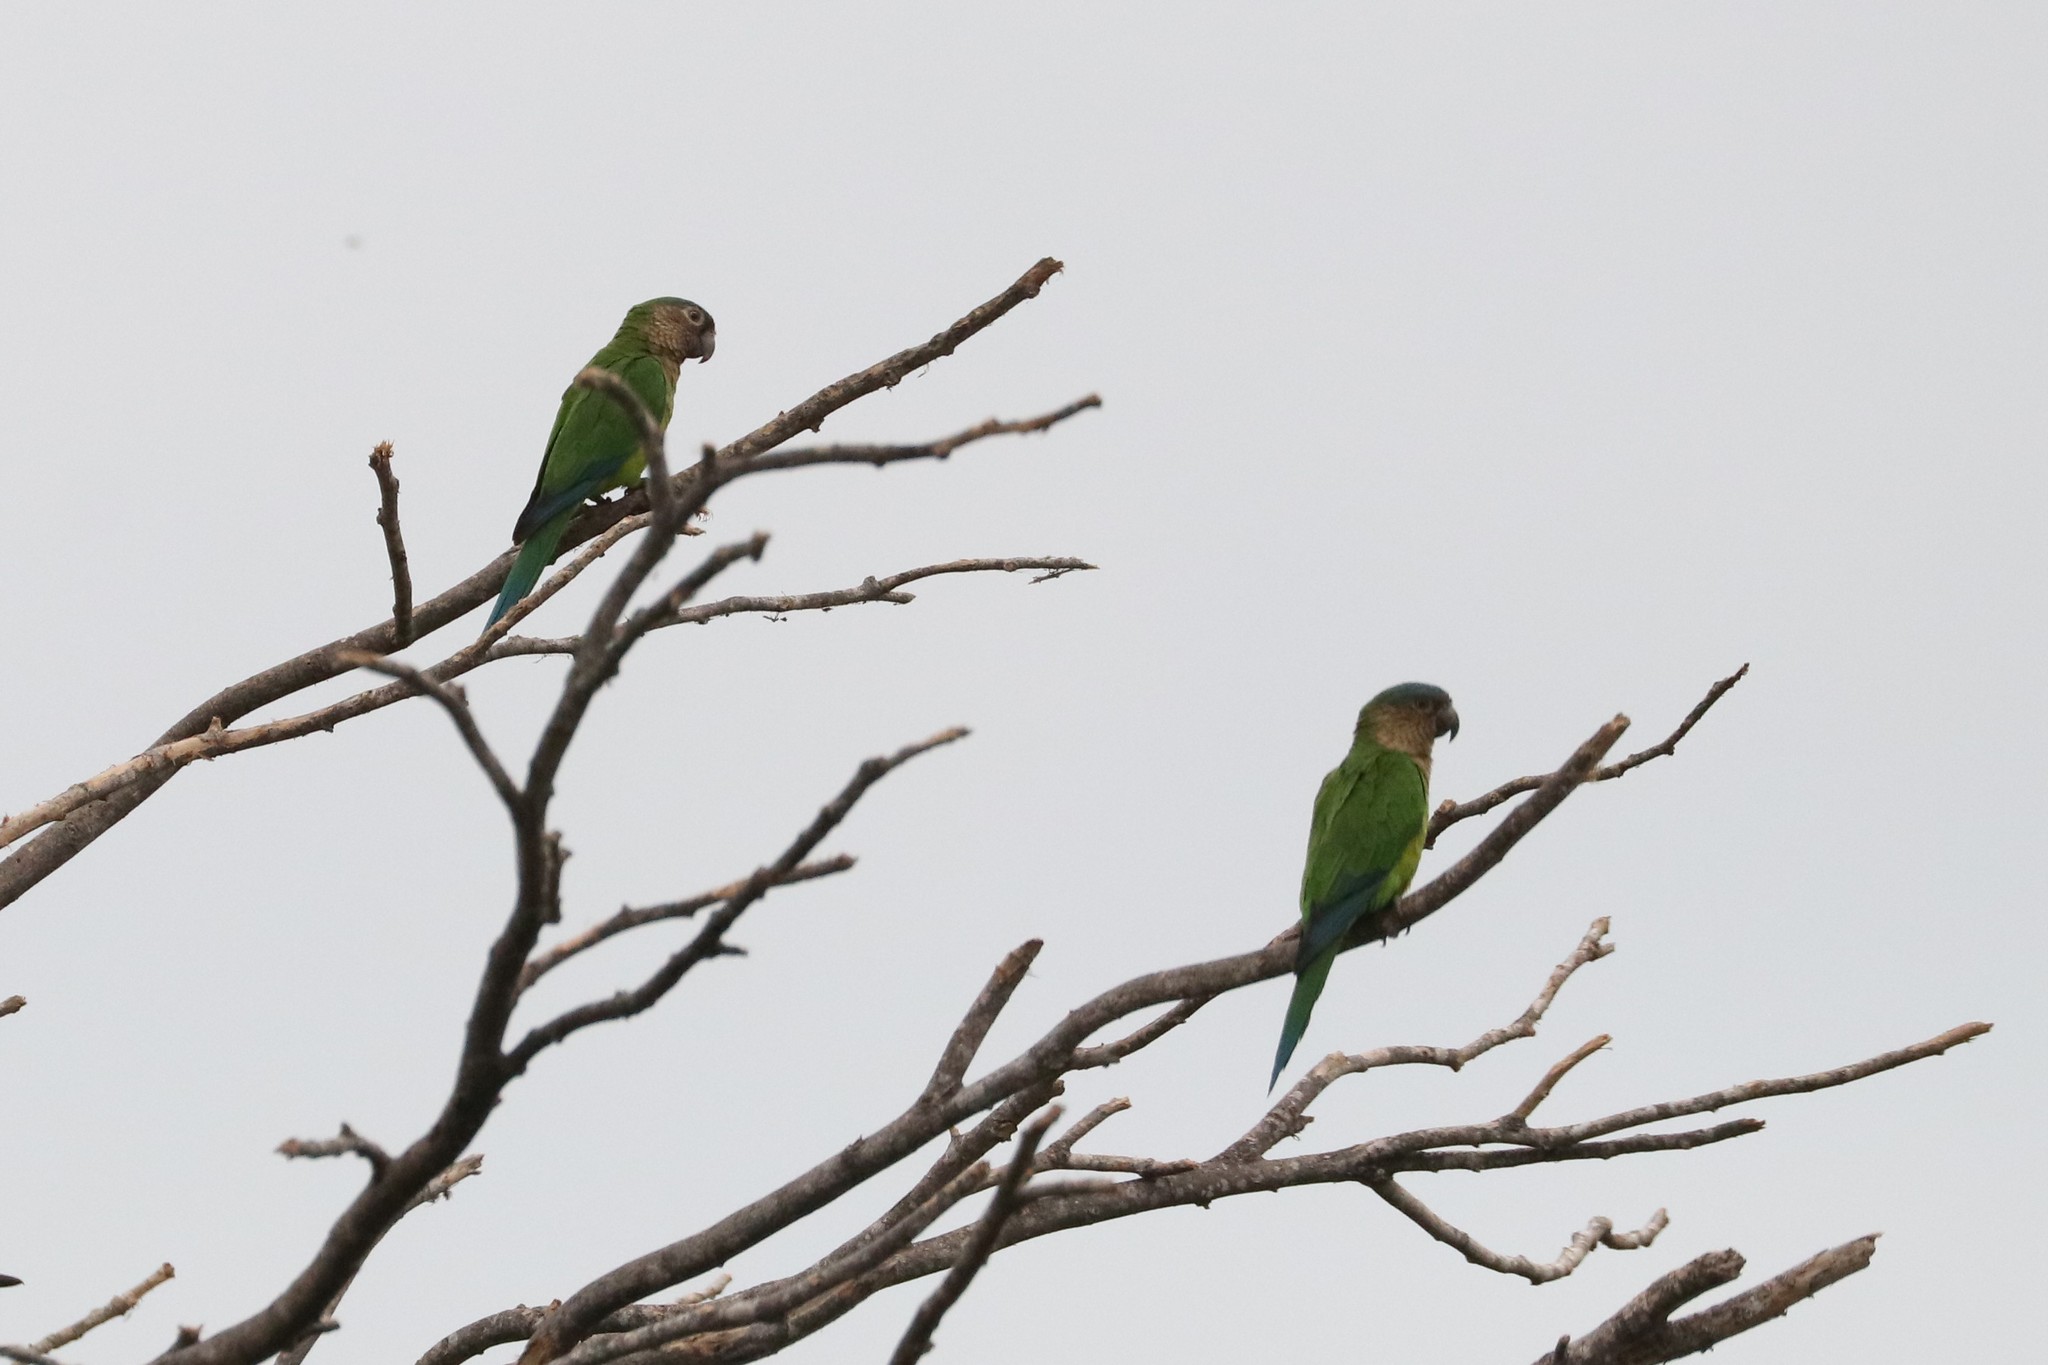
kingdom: Animalia
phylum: Chordata
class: Aves
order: Psittaciformes
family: Psittacidae
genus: Aratinga
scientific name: Aratinga pertinax
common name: Brown-throated parakeet
